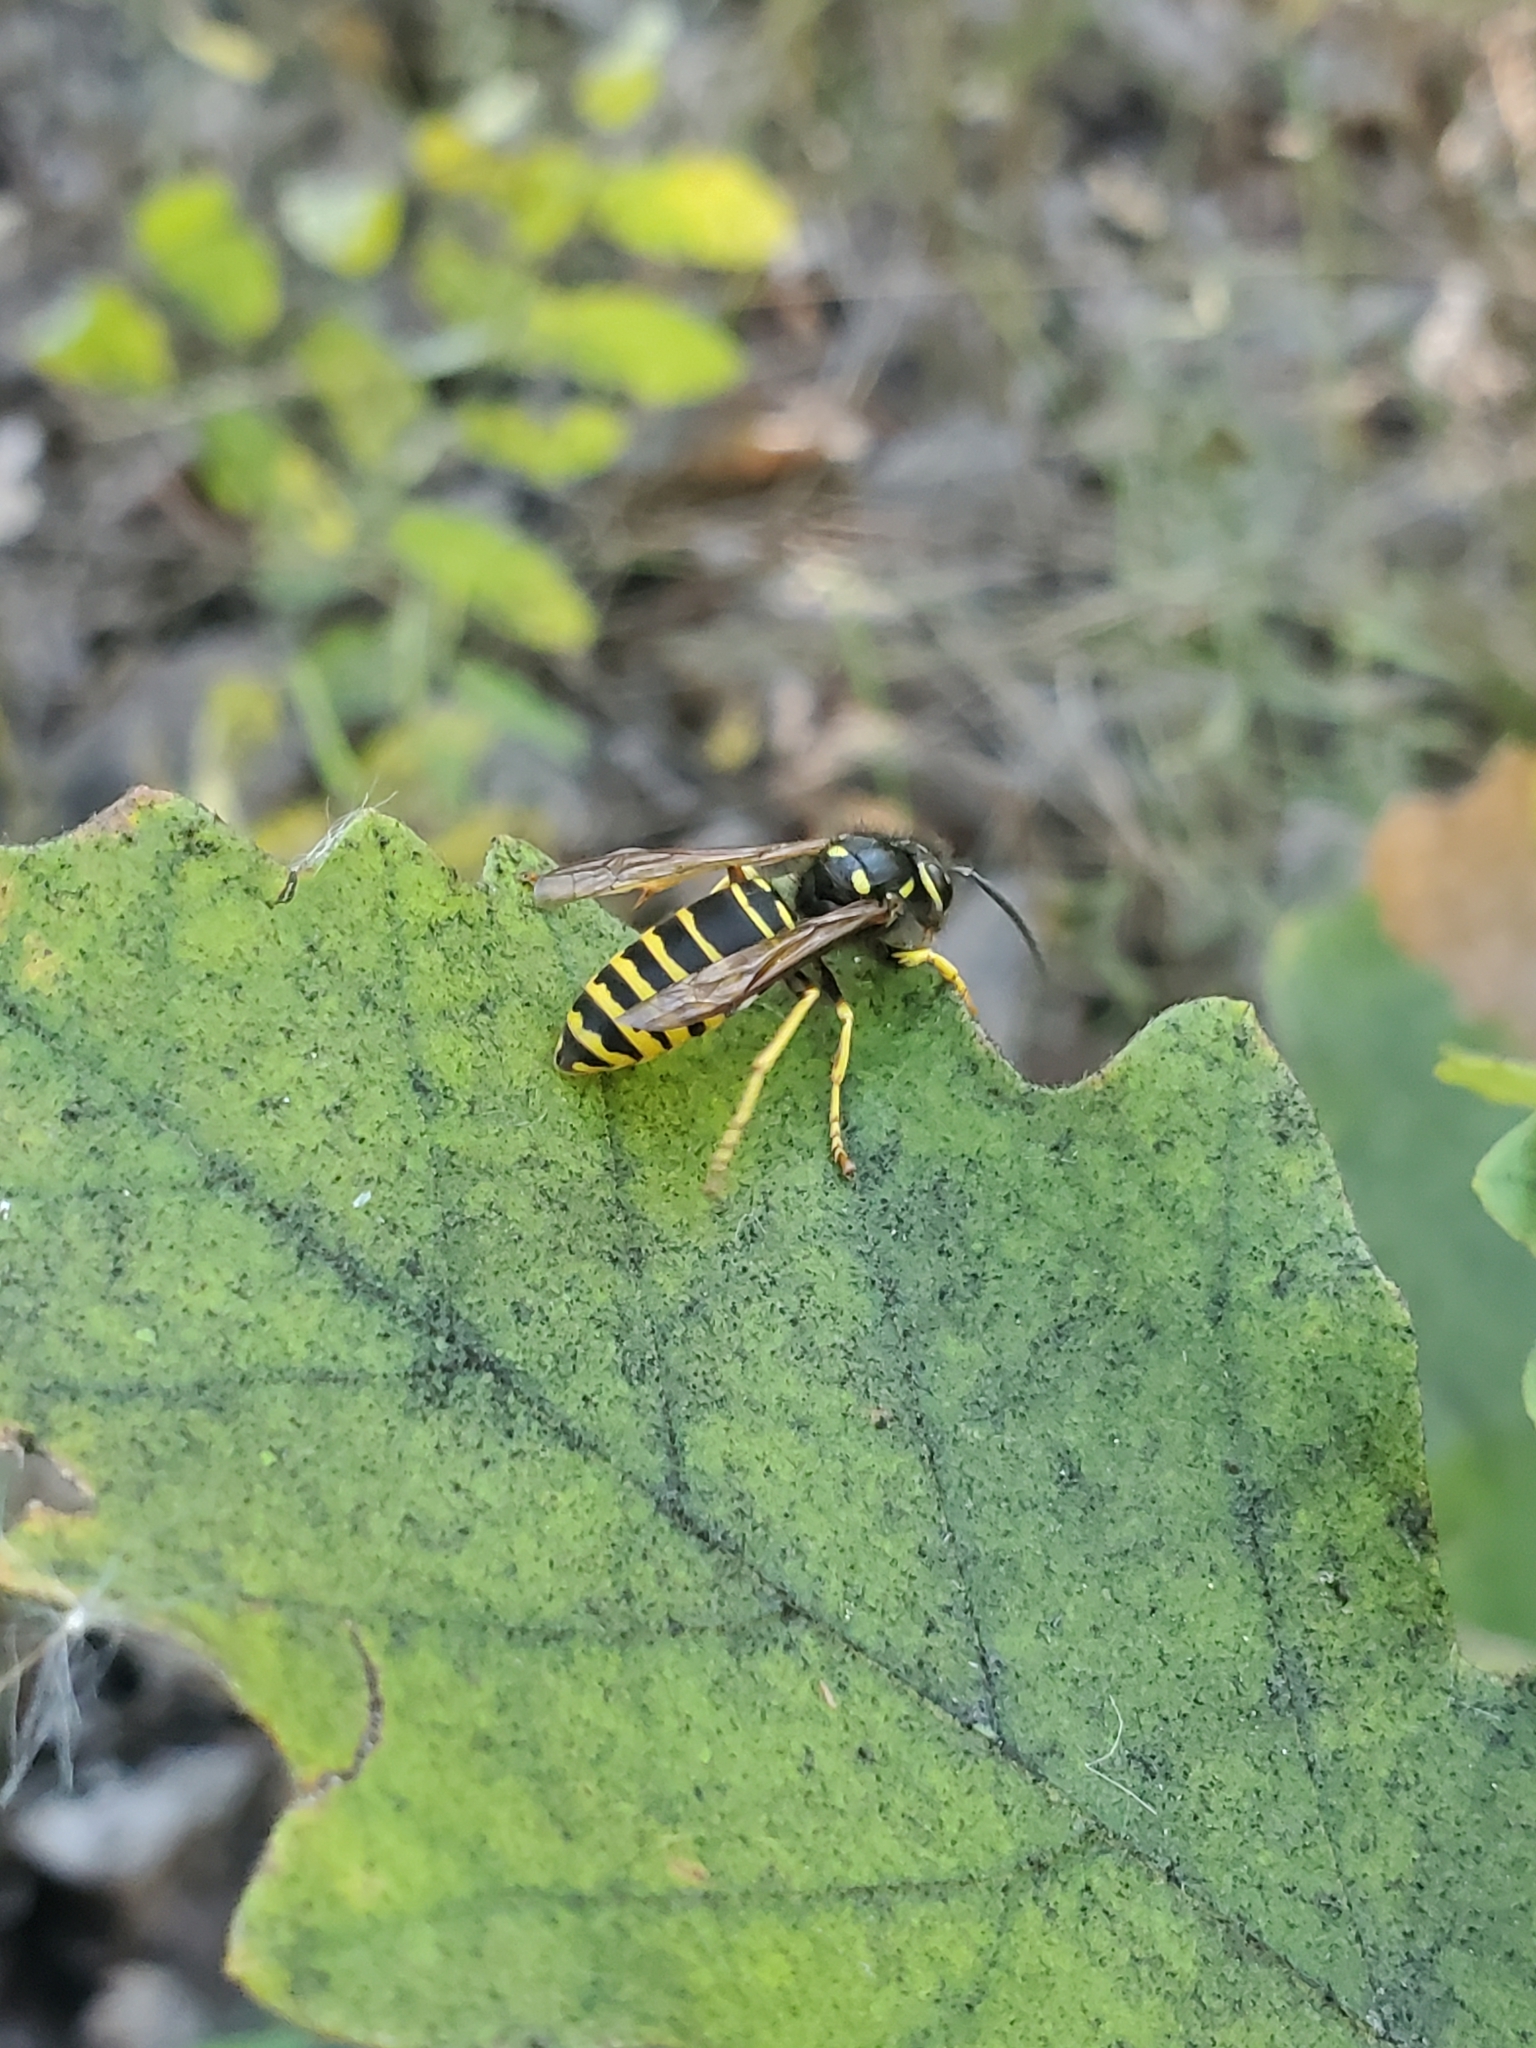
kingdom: Animalia
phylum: Arthropoda
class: Insecta
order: Hymenoptera
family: Vespidae
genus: Vespula
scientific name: Vespula vidua
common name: Widow yellowjacket
